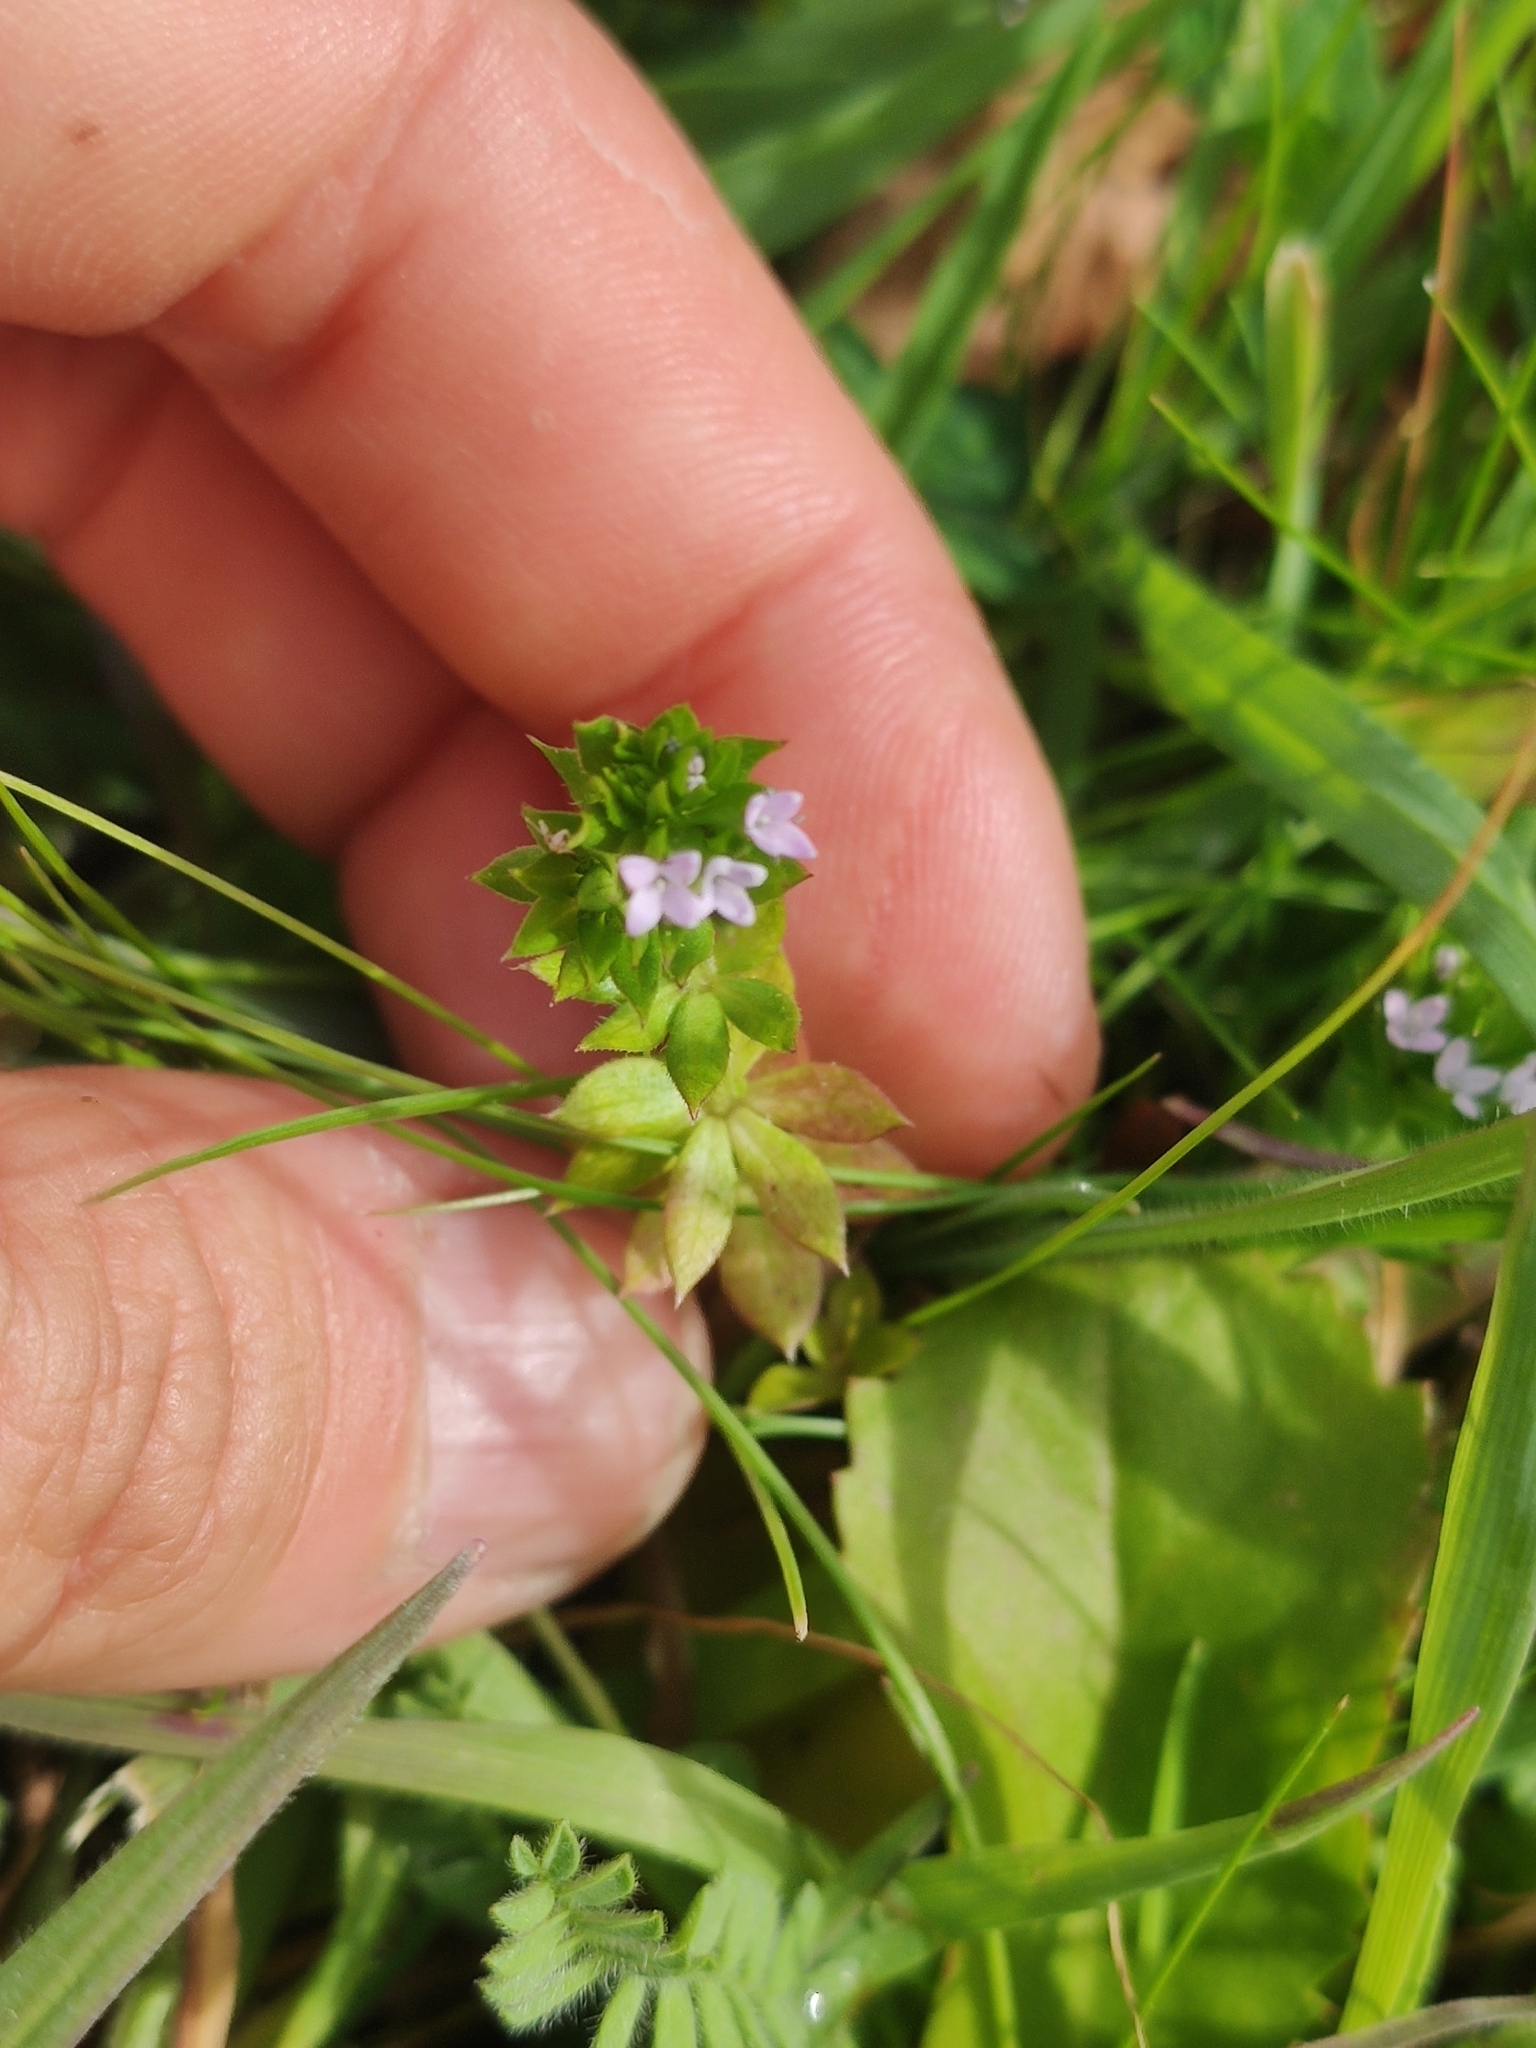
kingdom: Plantae
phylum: Tracheophyta
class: Magnoliopsida
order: Gentianales
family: Rubiaceae
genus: Sherardia
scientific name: Sherardia arvensis
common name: Field madder
